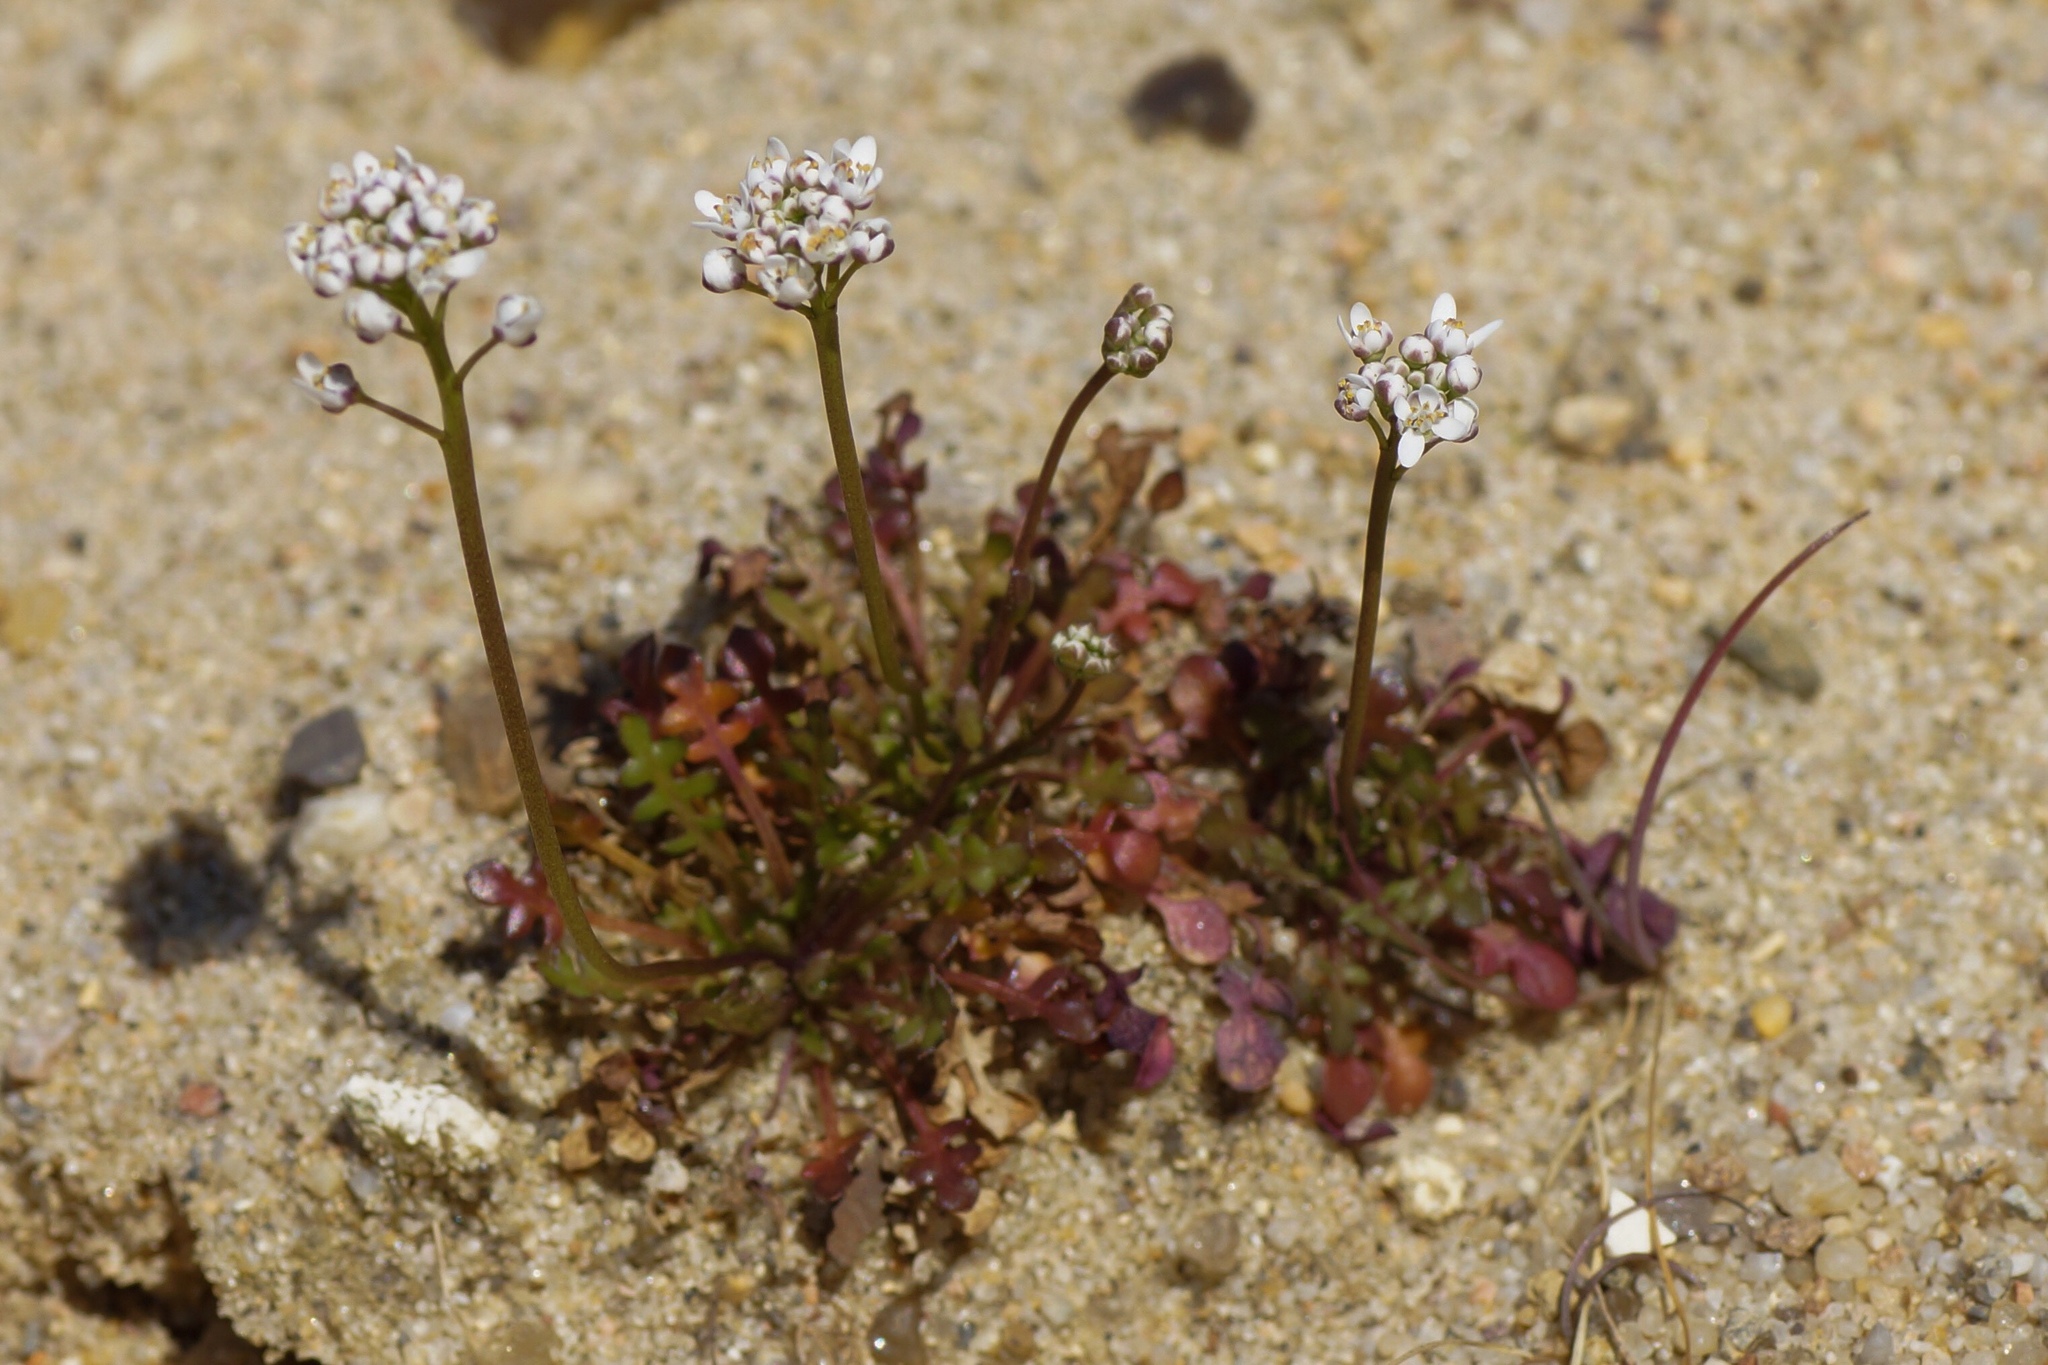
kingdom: Plantae
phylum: Tracheophyta
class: Magnoliopsida
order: Brassicales
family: Brassicaceae
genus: Teesdalia
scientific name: Teesdalia nudicaulis
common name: Shepherd's cress
